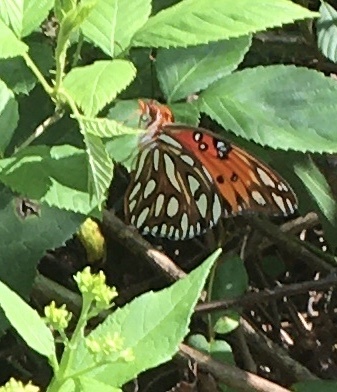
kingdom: Animalia
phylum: Arthropoda
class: Insecta
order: Lepidoptera
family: Nymphalidae
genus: Dione
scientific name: Dione vanillae
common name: Gulf fritillary
